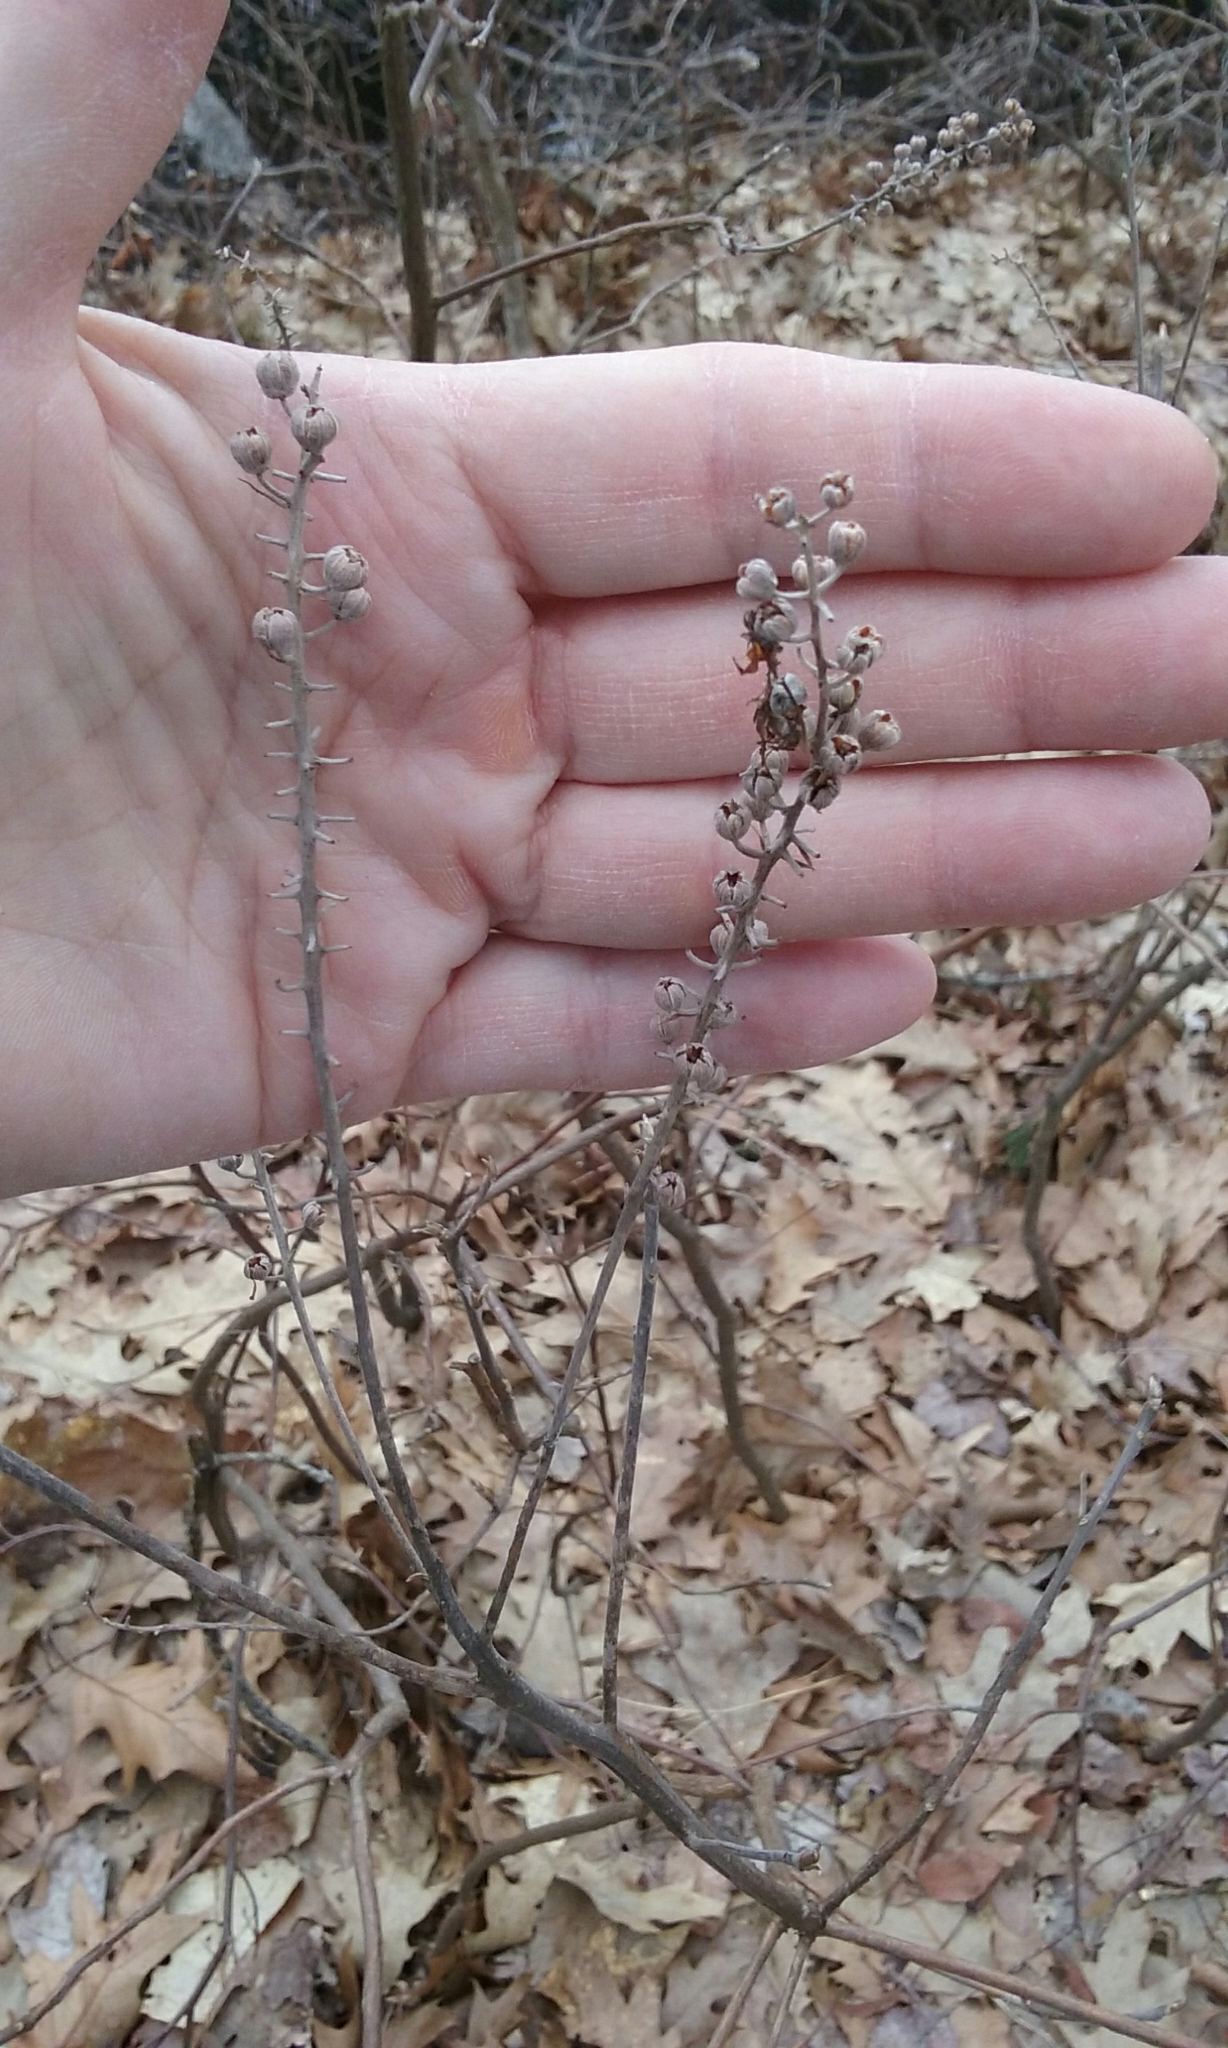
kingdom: Plantae
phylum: Tracheophyta
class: Magnoliopsida
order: Ericales
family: Clethraceae
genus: Clethra
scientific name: Clethra alnifolia
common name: Sweet pepperbush
